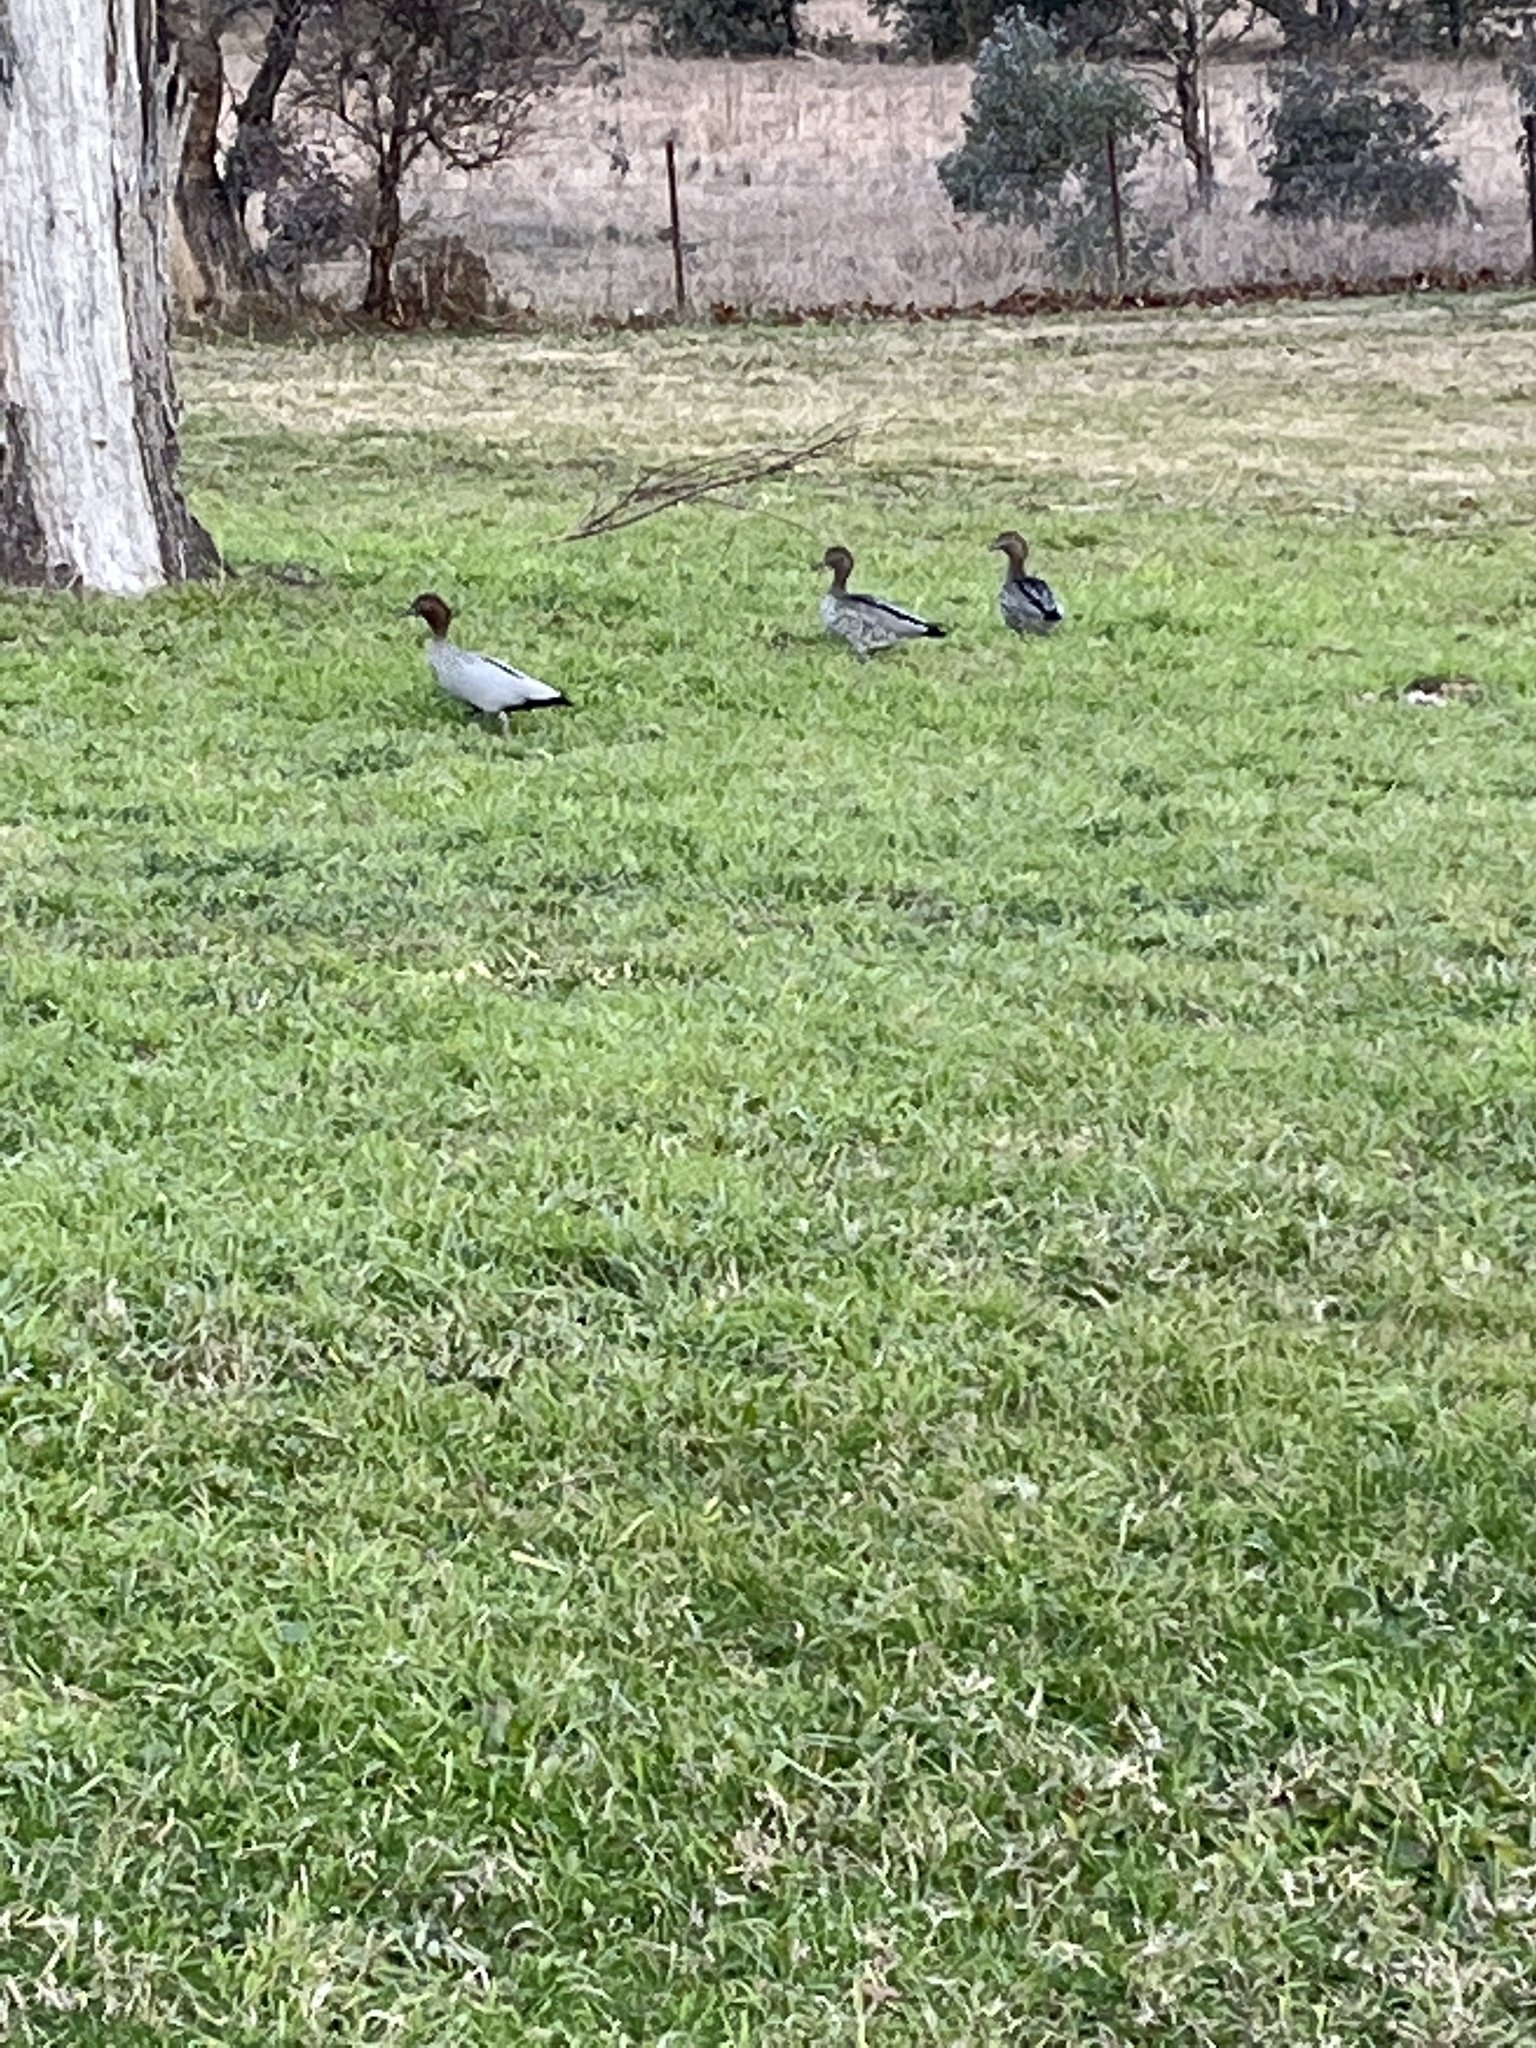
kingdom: Animalia
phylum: Chordata
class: Aves
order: Anseriformes
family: Anatidae
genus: Chenonetta
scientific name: Chenonetta jubata
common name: Maned duck
